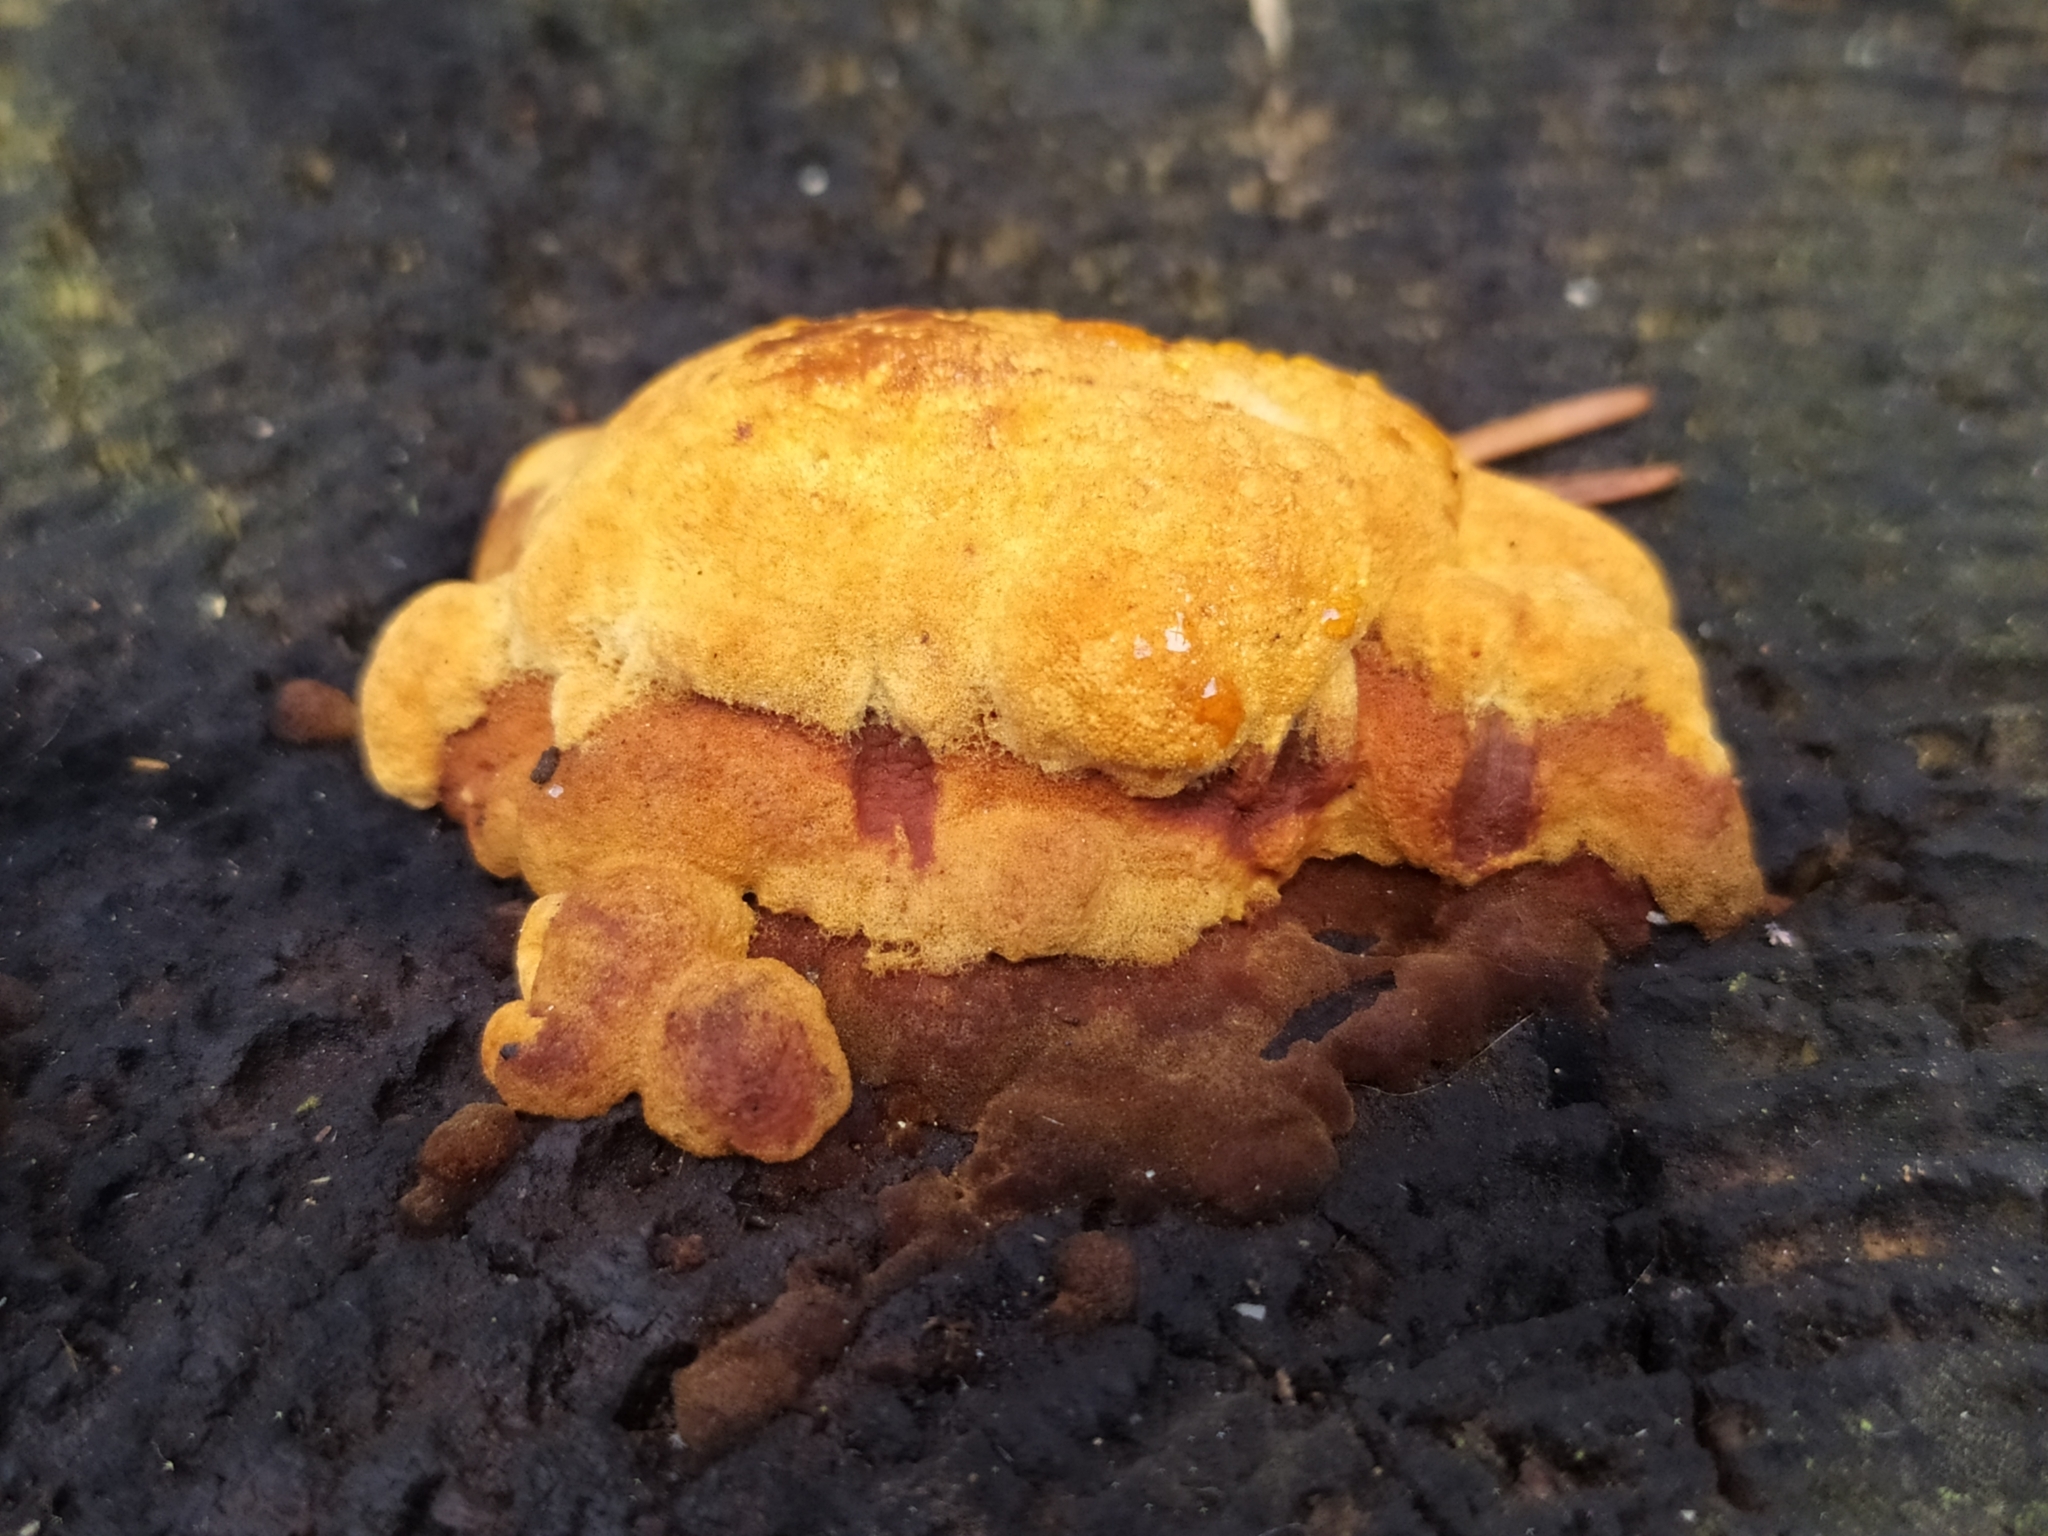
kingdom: Fungi
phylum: Basidiomycota
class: Agaricomycetes
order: Gloeophyllales
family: Gloeophyllaceae
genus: Gloeophyllum
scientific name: Gloeophyllum odoratum
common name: Anise mazegill
